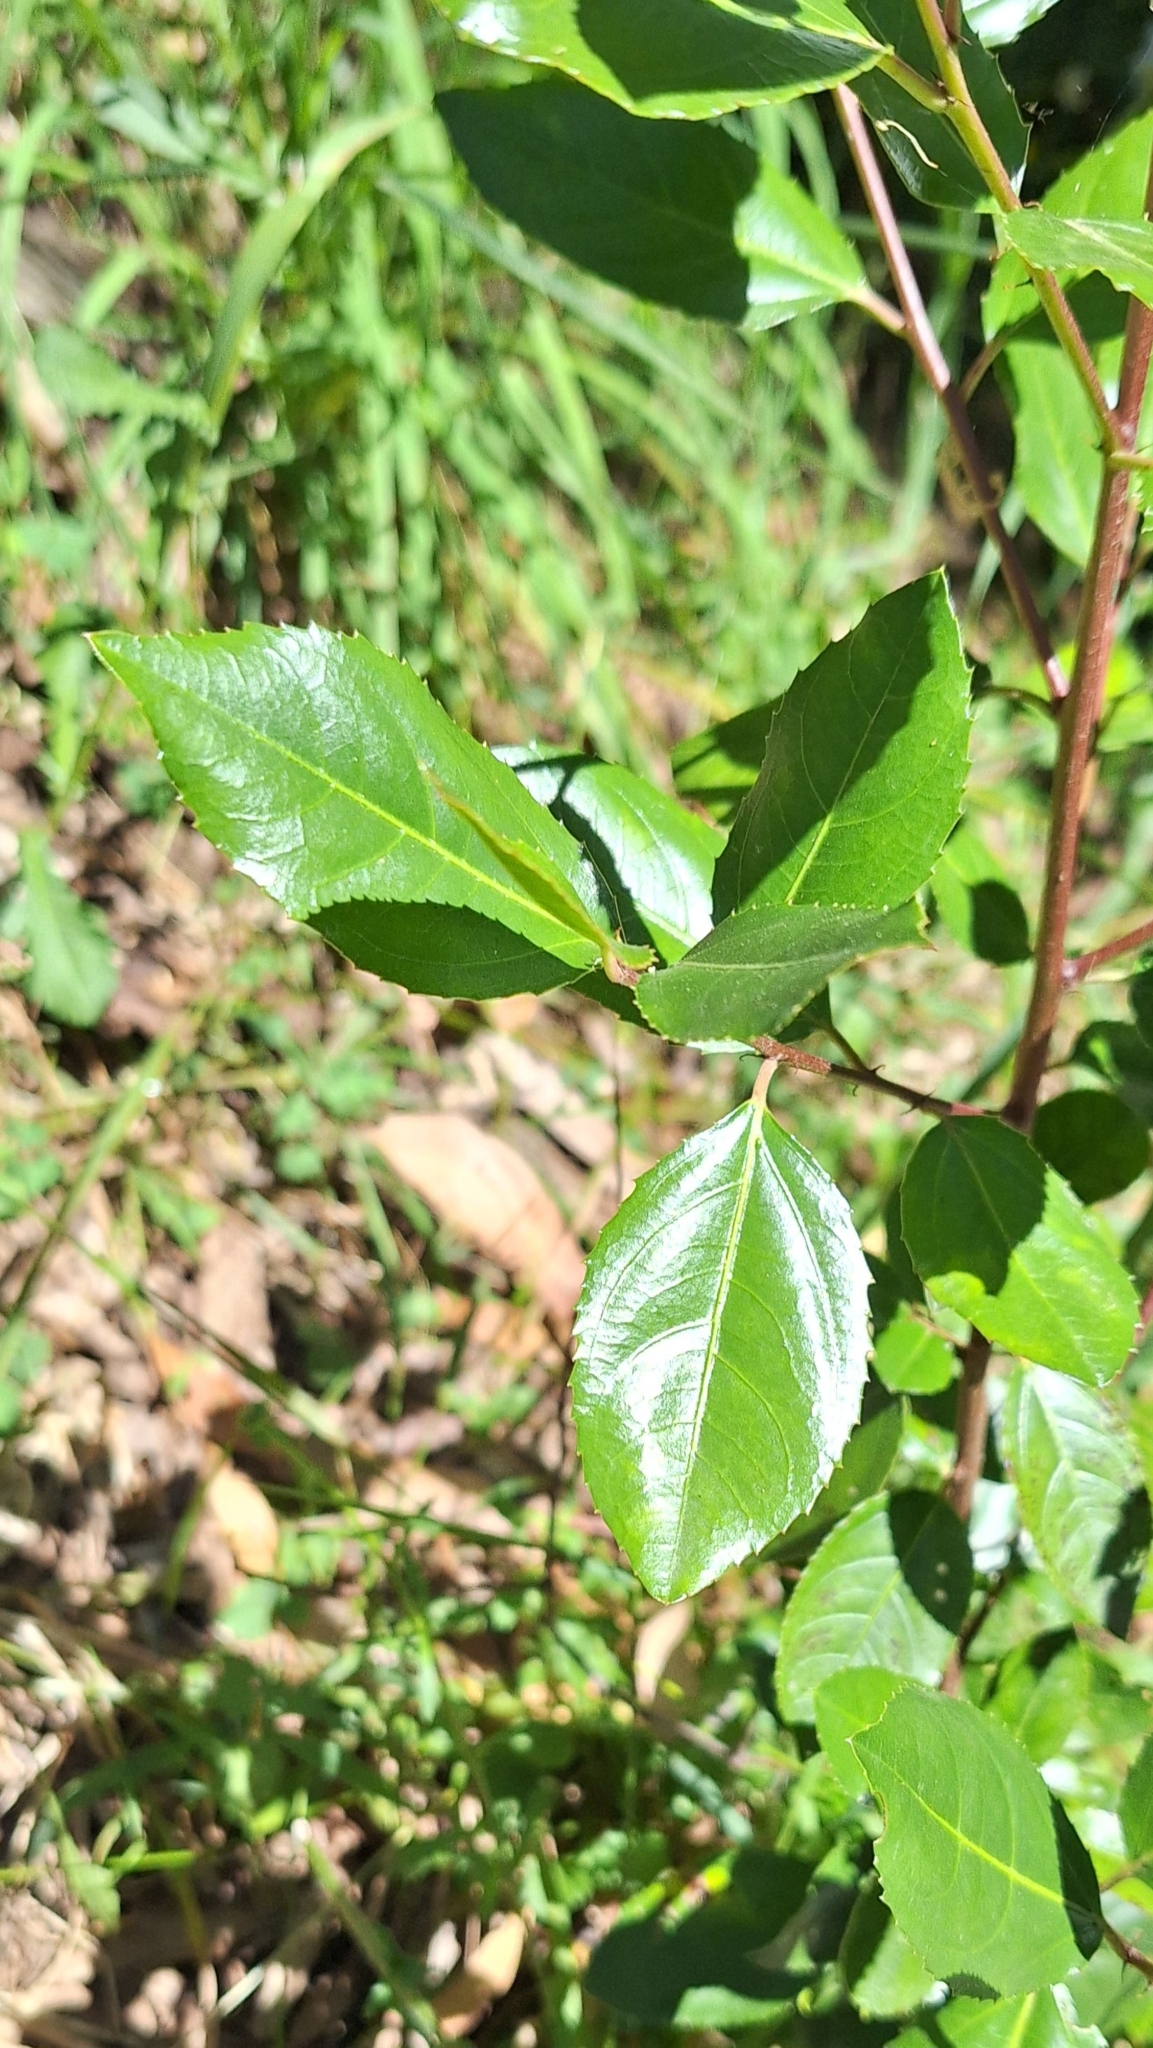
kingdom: Plantae
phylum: Tracheophyta
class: Magnoliopsida
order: Rosales
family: Rhamnaceae
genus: Rhamnus
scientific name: Rhamnus alaternus
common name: Mediterranean buckthorn
